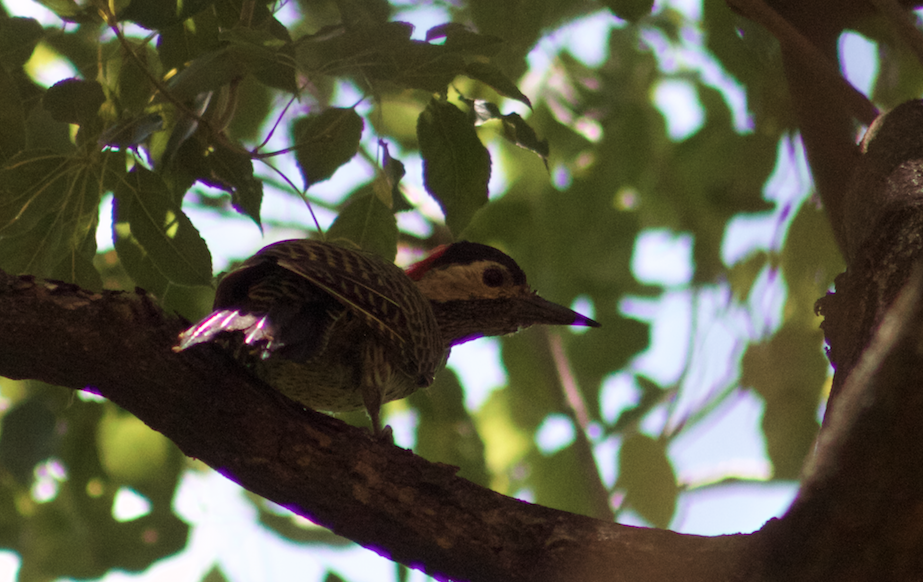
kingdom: Animalia
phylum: Chordata
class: Aves
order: Piciformes
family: Picidae
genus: Colaptes
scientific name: Colaptes melanochloros
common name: Green-barred woodpecker
